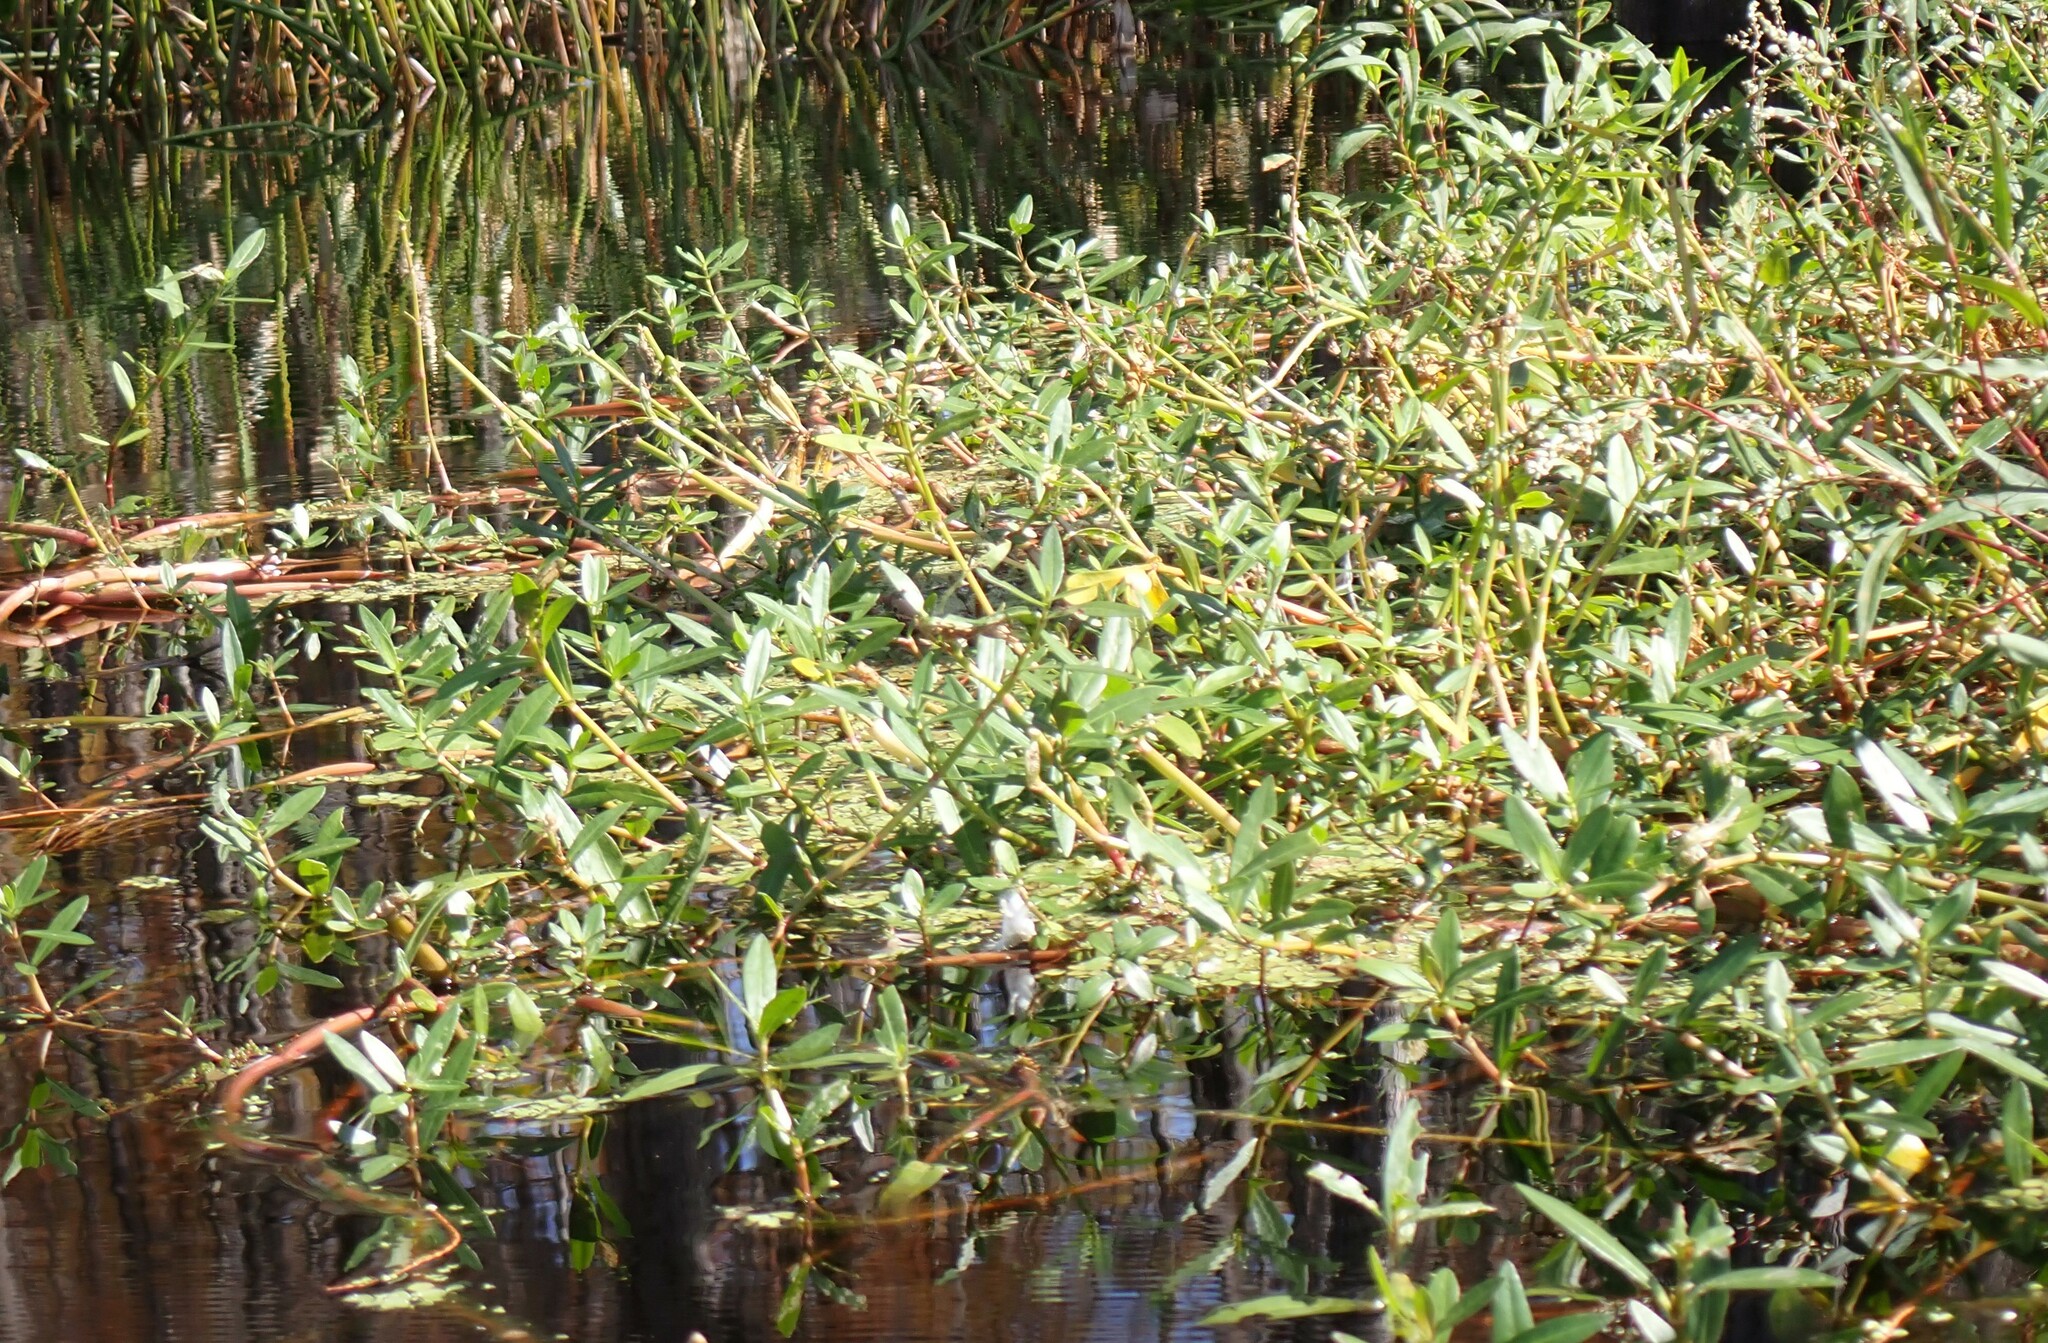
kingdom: Plantae
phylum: Tracheophyta
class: Magnoliopsida
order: Caryophyllales
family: Amaranthaceae
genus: Alternanthera
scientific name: Alternanthera philoxeroides
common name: Alligatorweed
